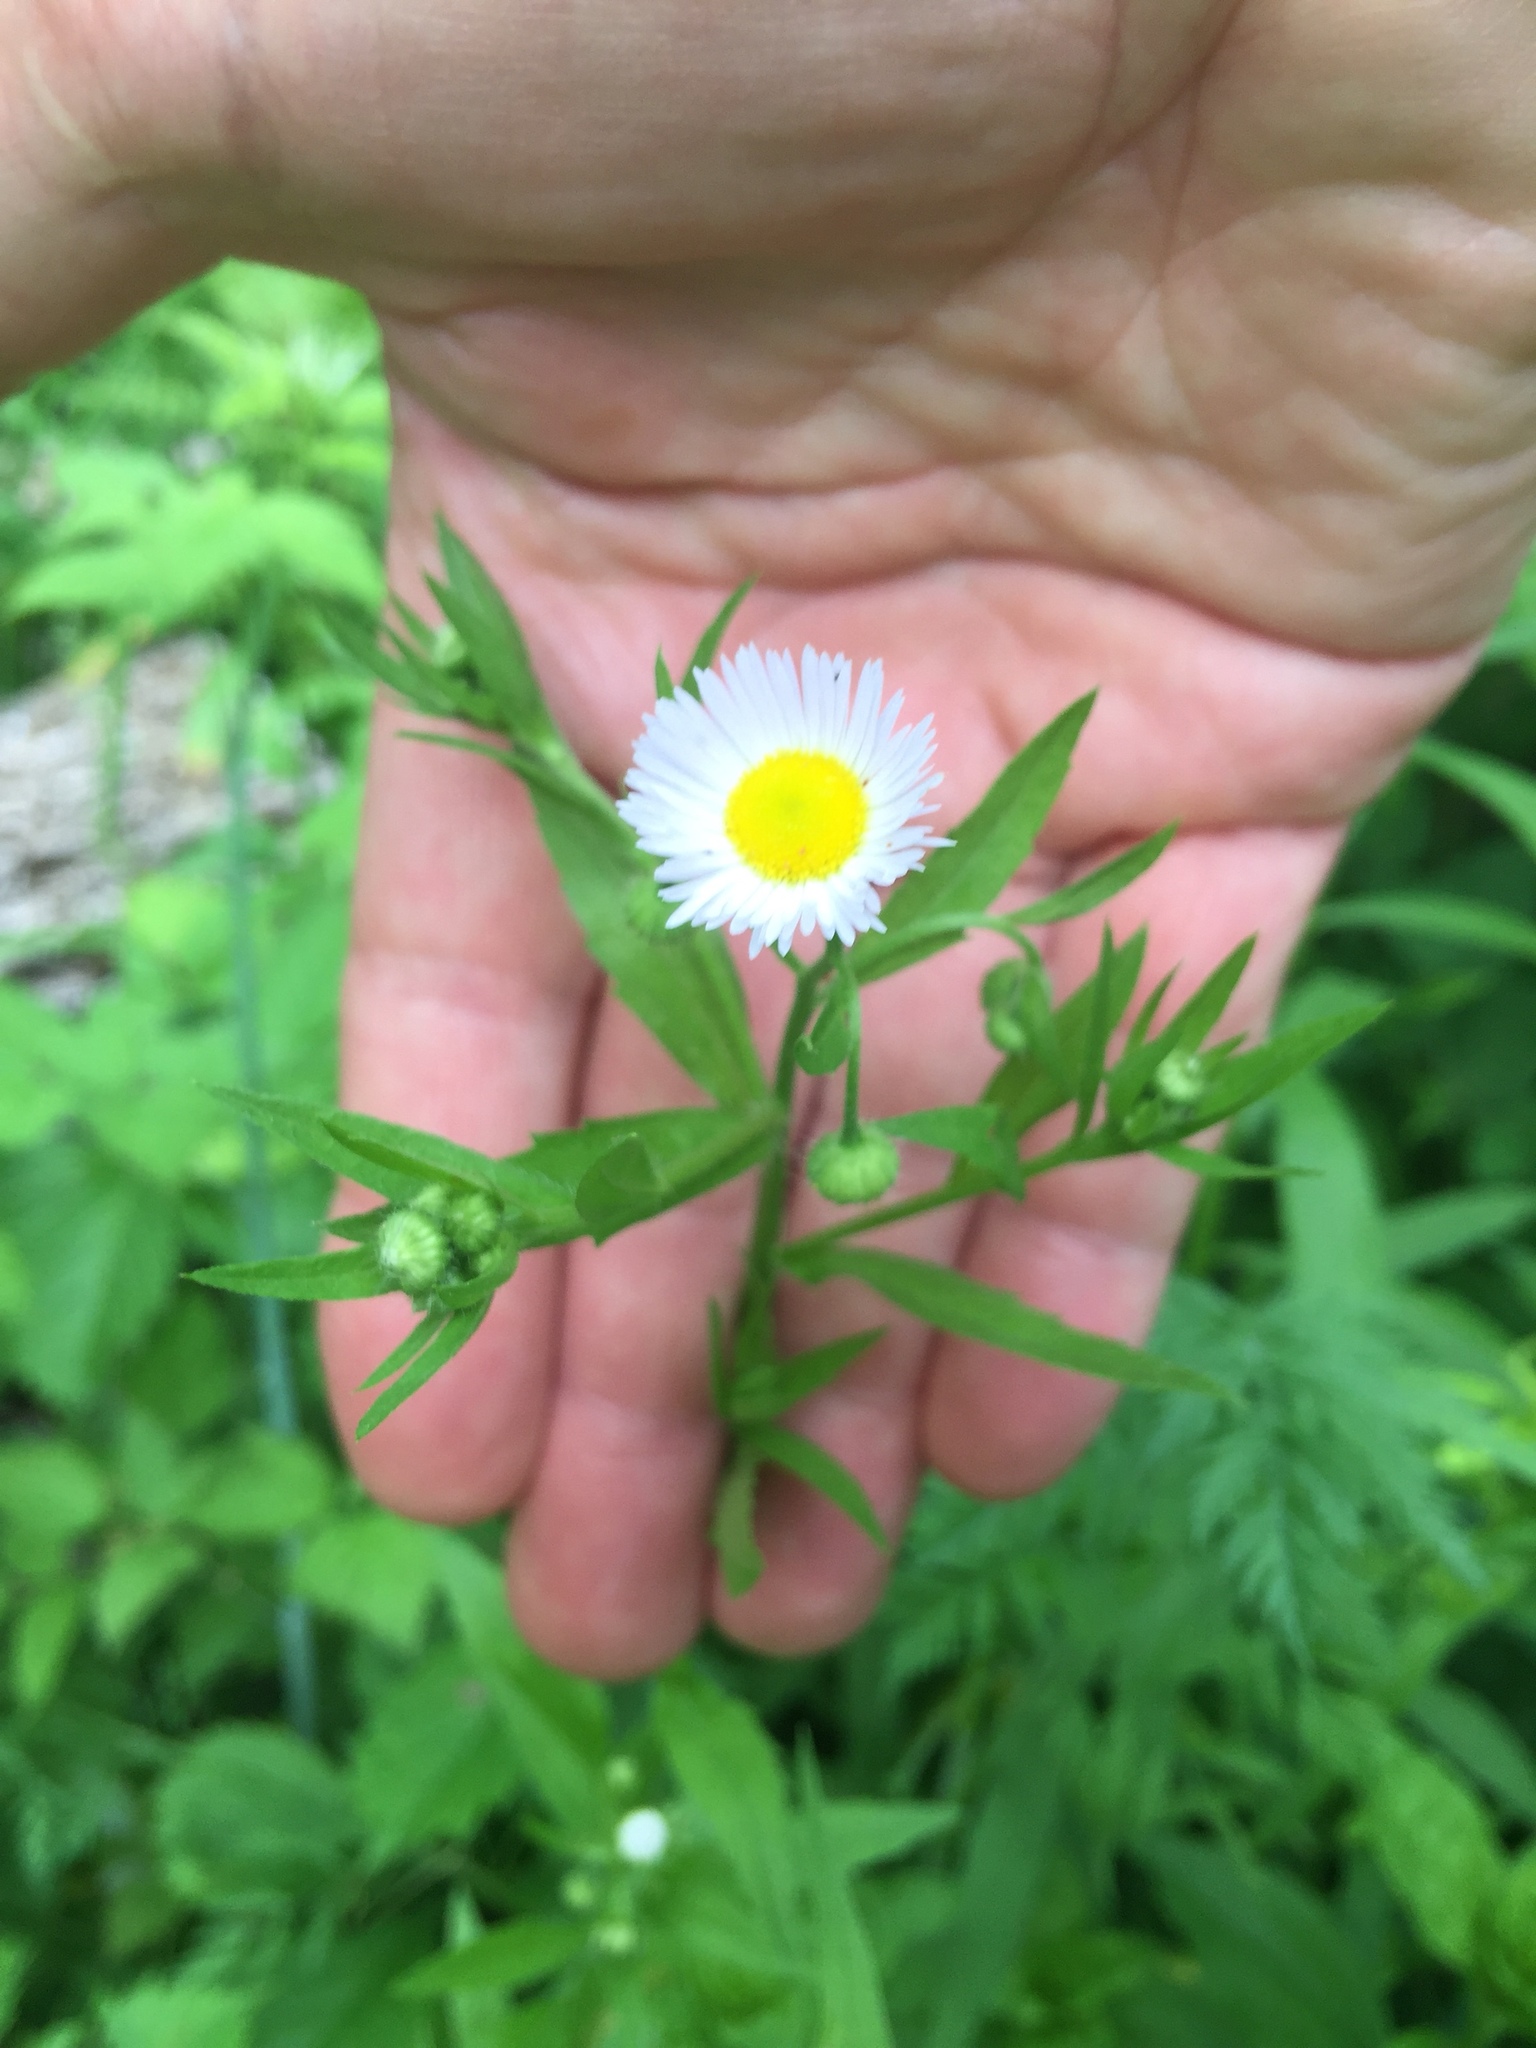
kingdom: Plantae
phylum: Tracheophyta
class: Magnoliopsida
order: Asterales
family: Asteraceae
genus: Erigeron
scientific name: Erigeron annuus
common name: Tall fleabane
